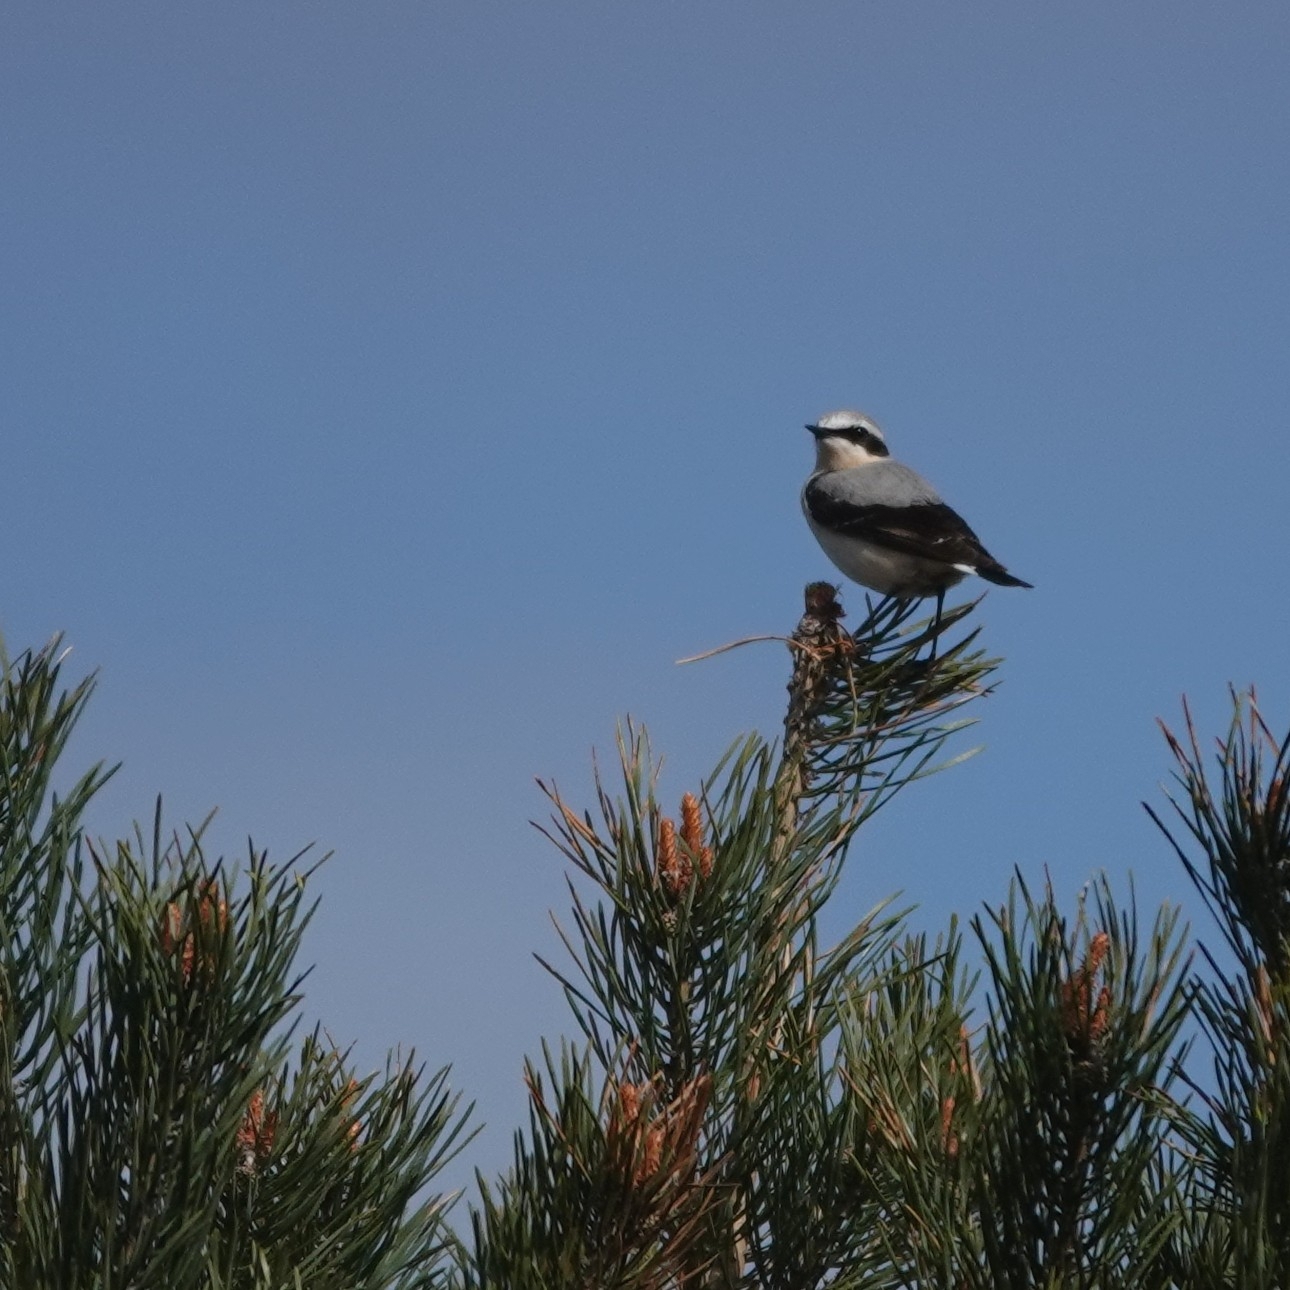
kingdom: Animalia
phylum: Chordata
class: Aves
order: Passeriformes
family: Muscicapidae
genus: Oenanthe
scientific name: Oenanthe oenanthe
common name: Northern wheatear
